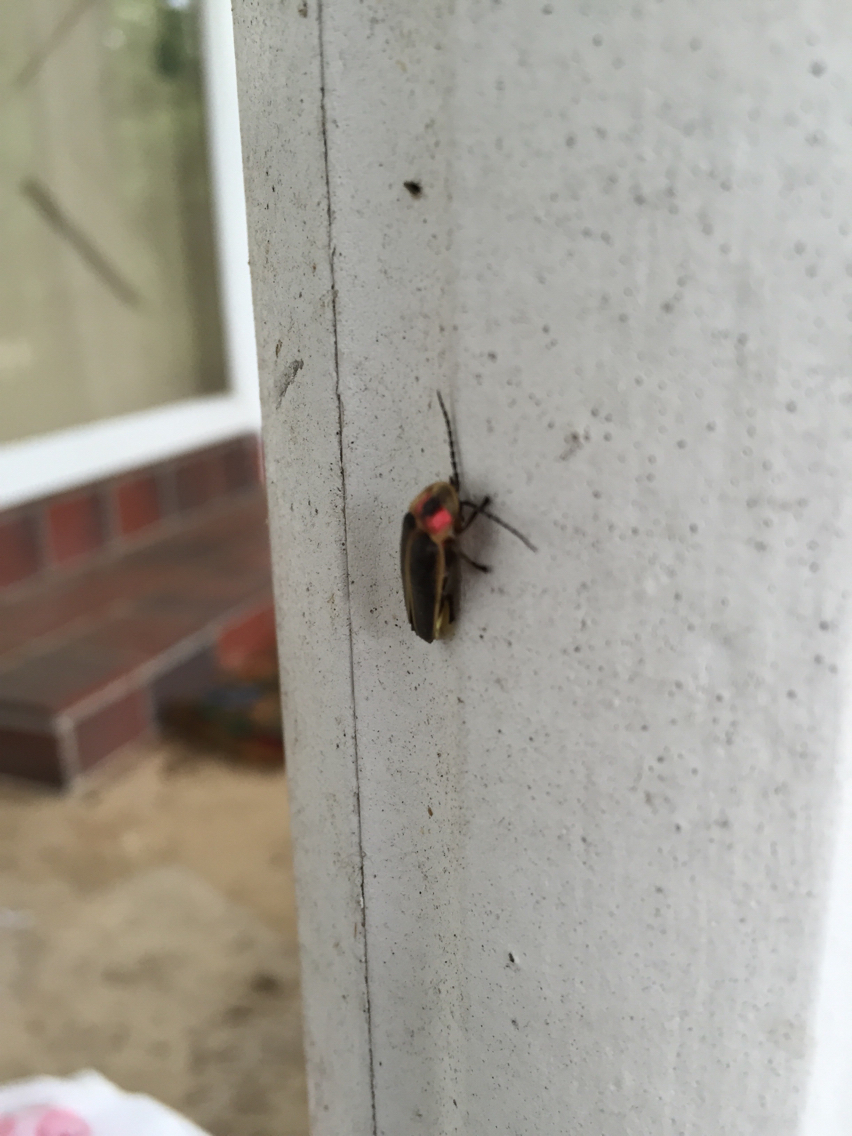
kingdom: Animalia
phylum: Arthropoda
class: Insecta
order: Coleoptera
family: Lampyridae
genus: Photinus
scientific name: Photinus pyralis
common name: Big dipper firefly
